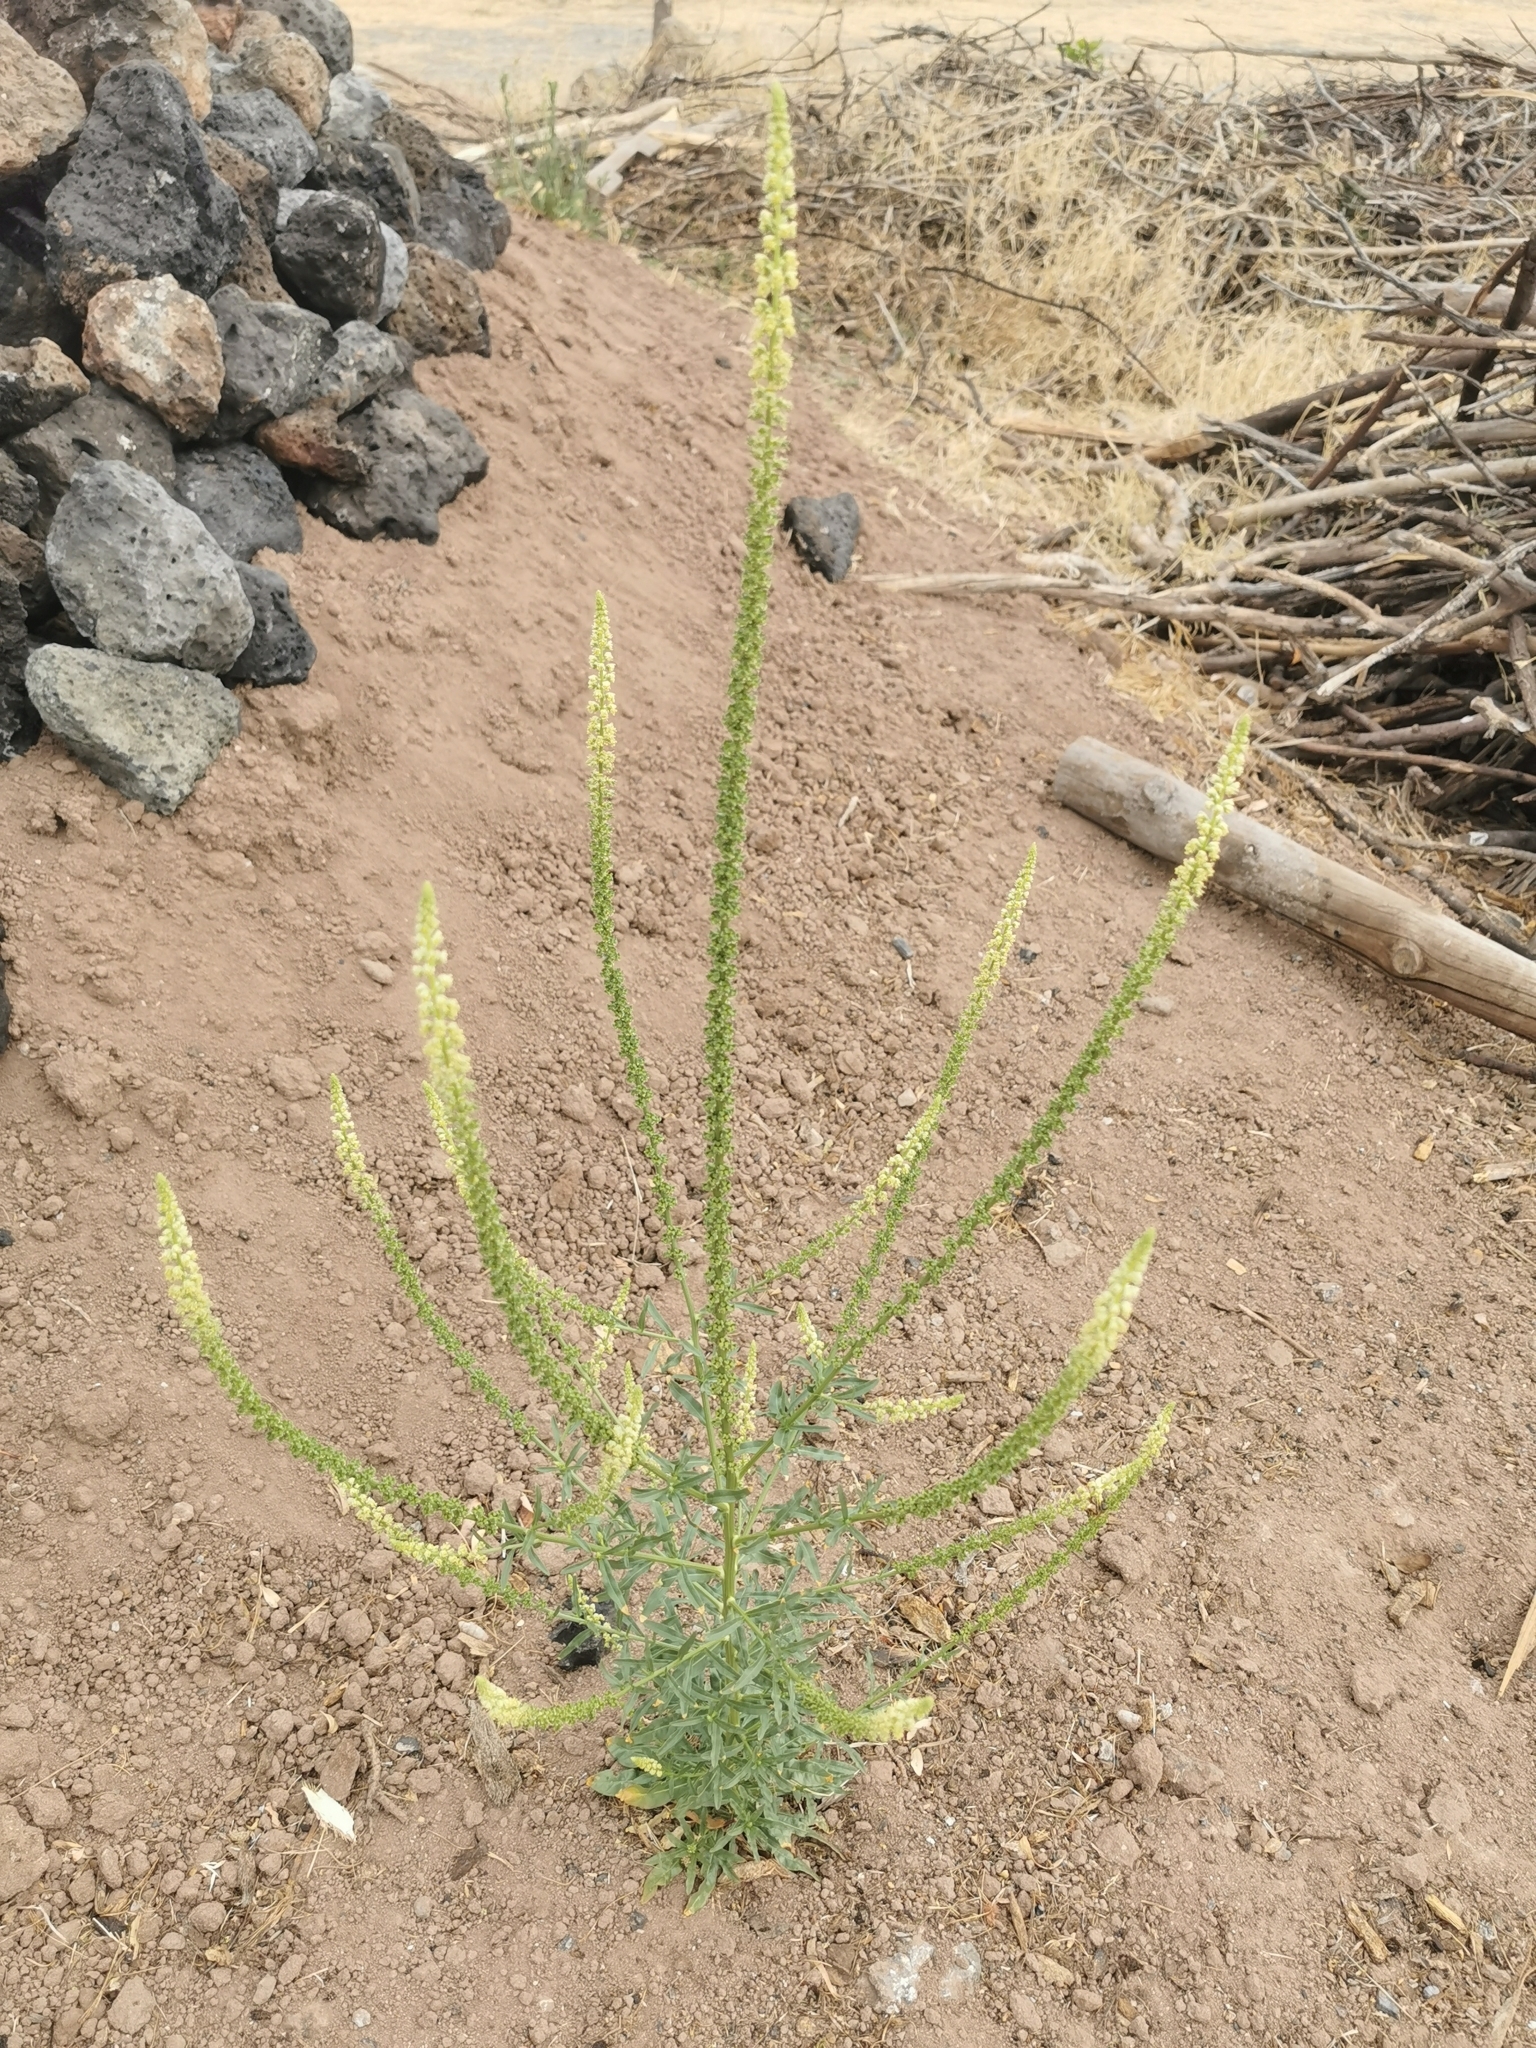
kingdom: Plantae
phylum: Tracheophyta
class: Magnoliopsida
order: Brassicales
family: Resedaceae
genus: Reseda
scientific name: Reseda luteola
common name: Weld
